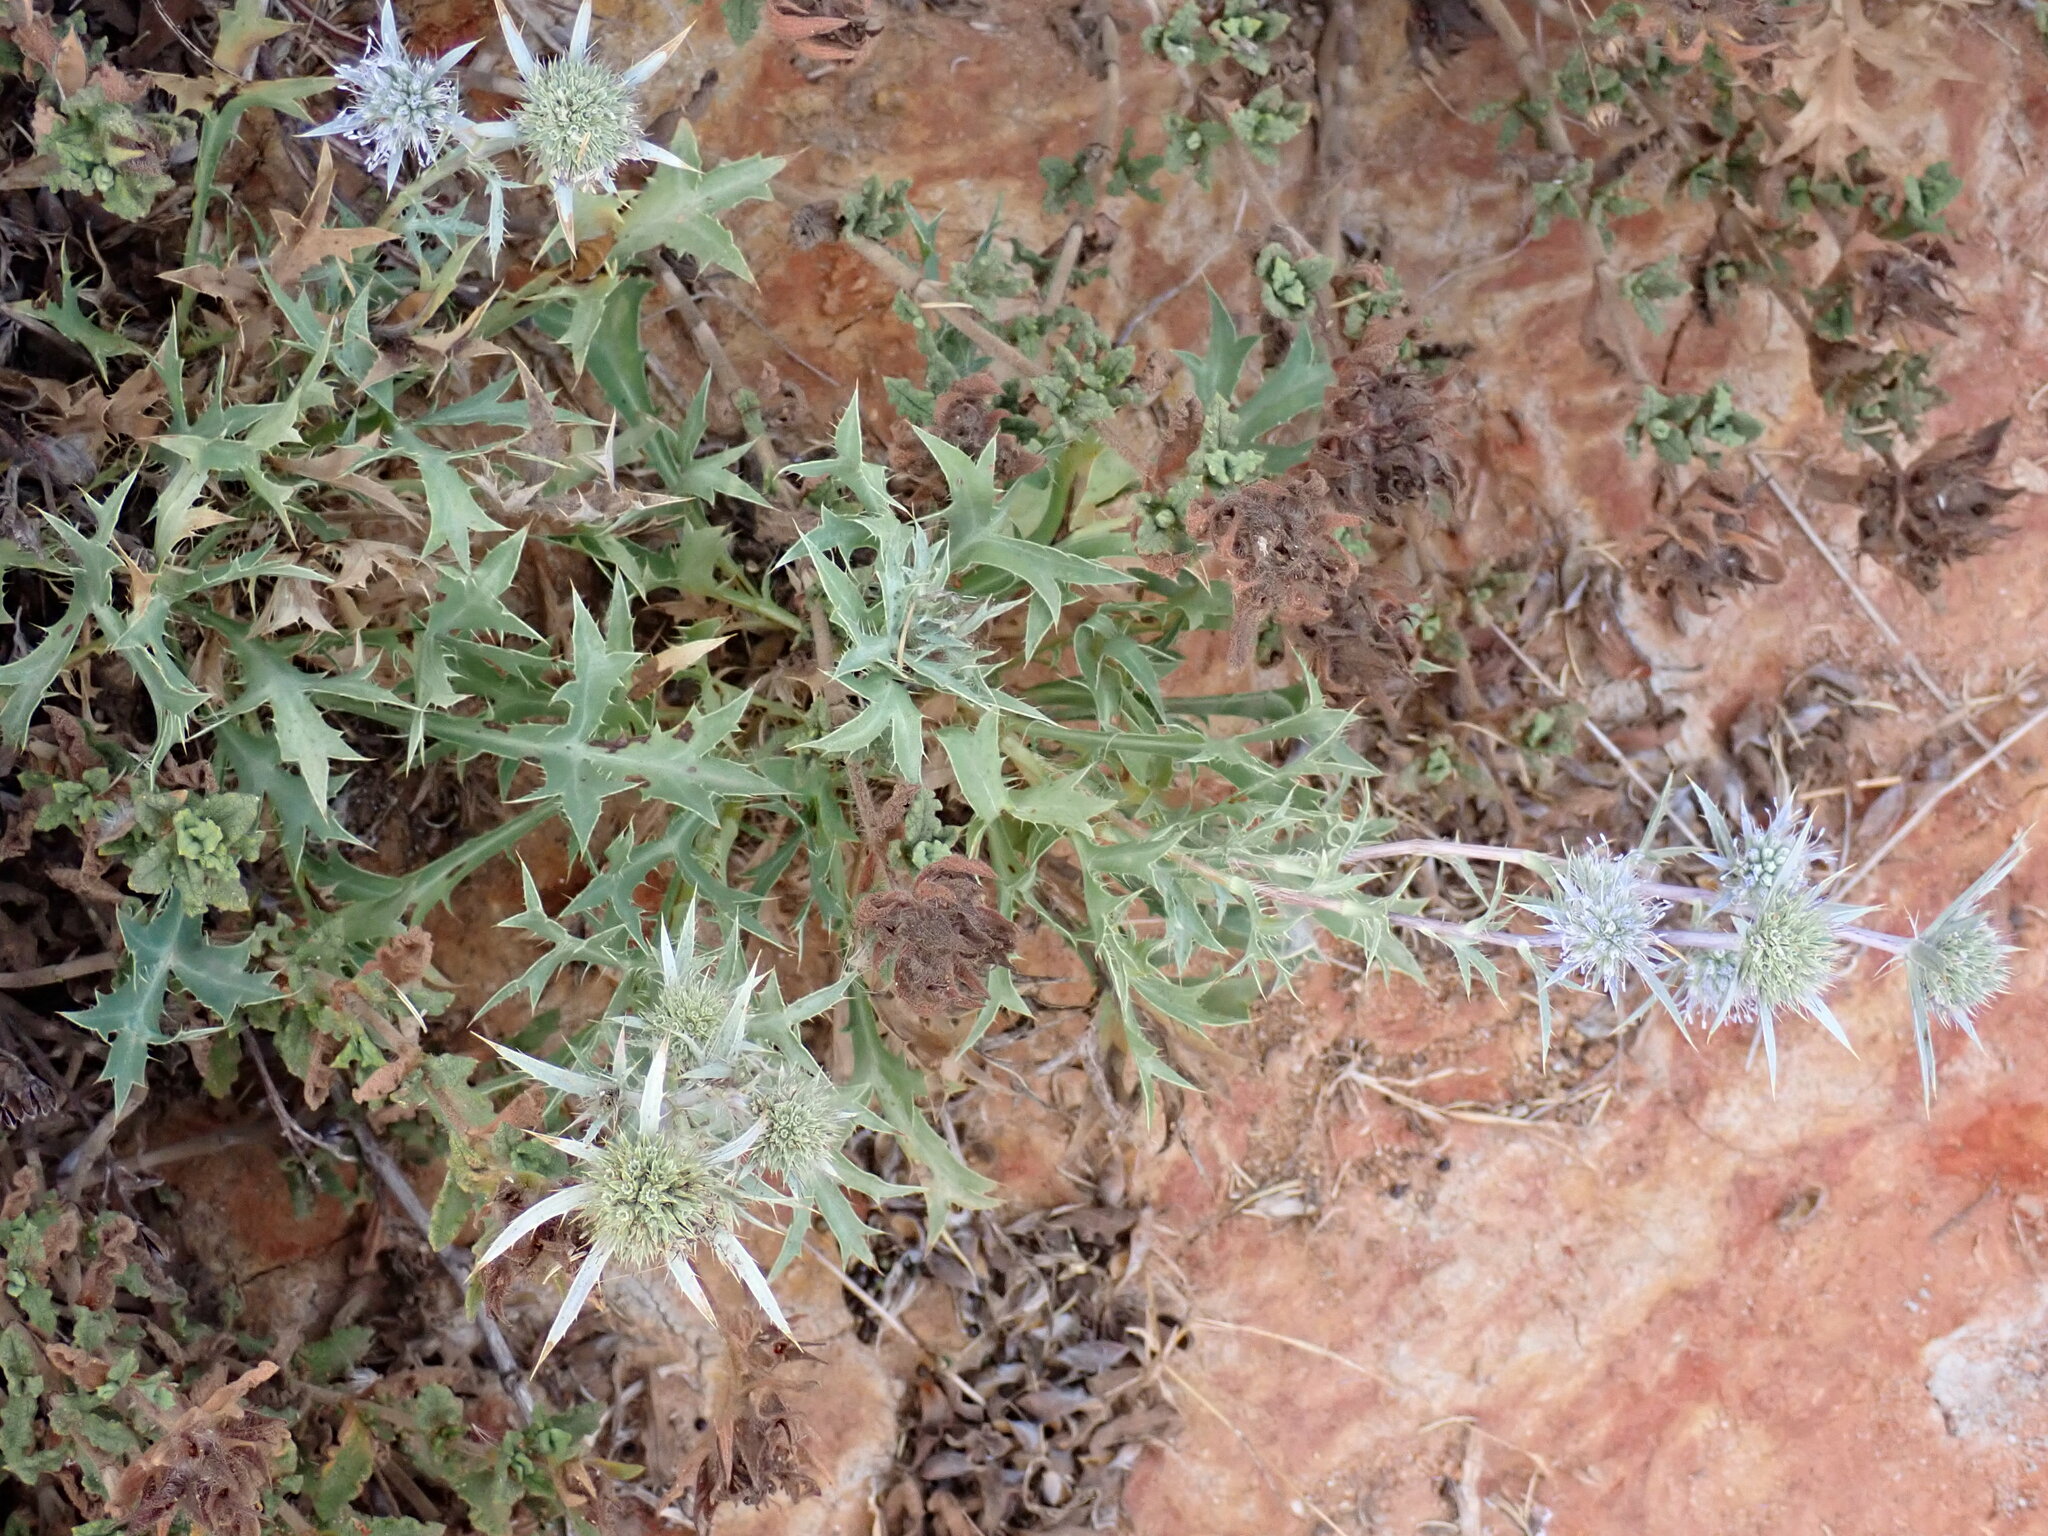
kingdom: Plantae
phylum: Tracheophyta
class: Magnoliopsida
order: Apiales
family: Apiaceae
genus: Eryngium
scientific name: Eryngium dilatatum
